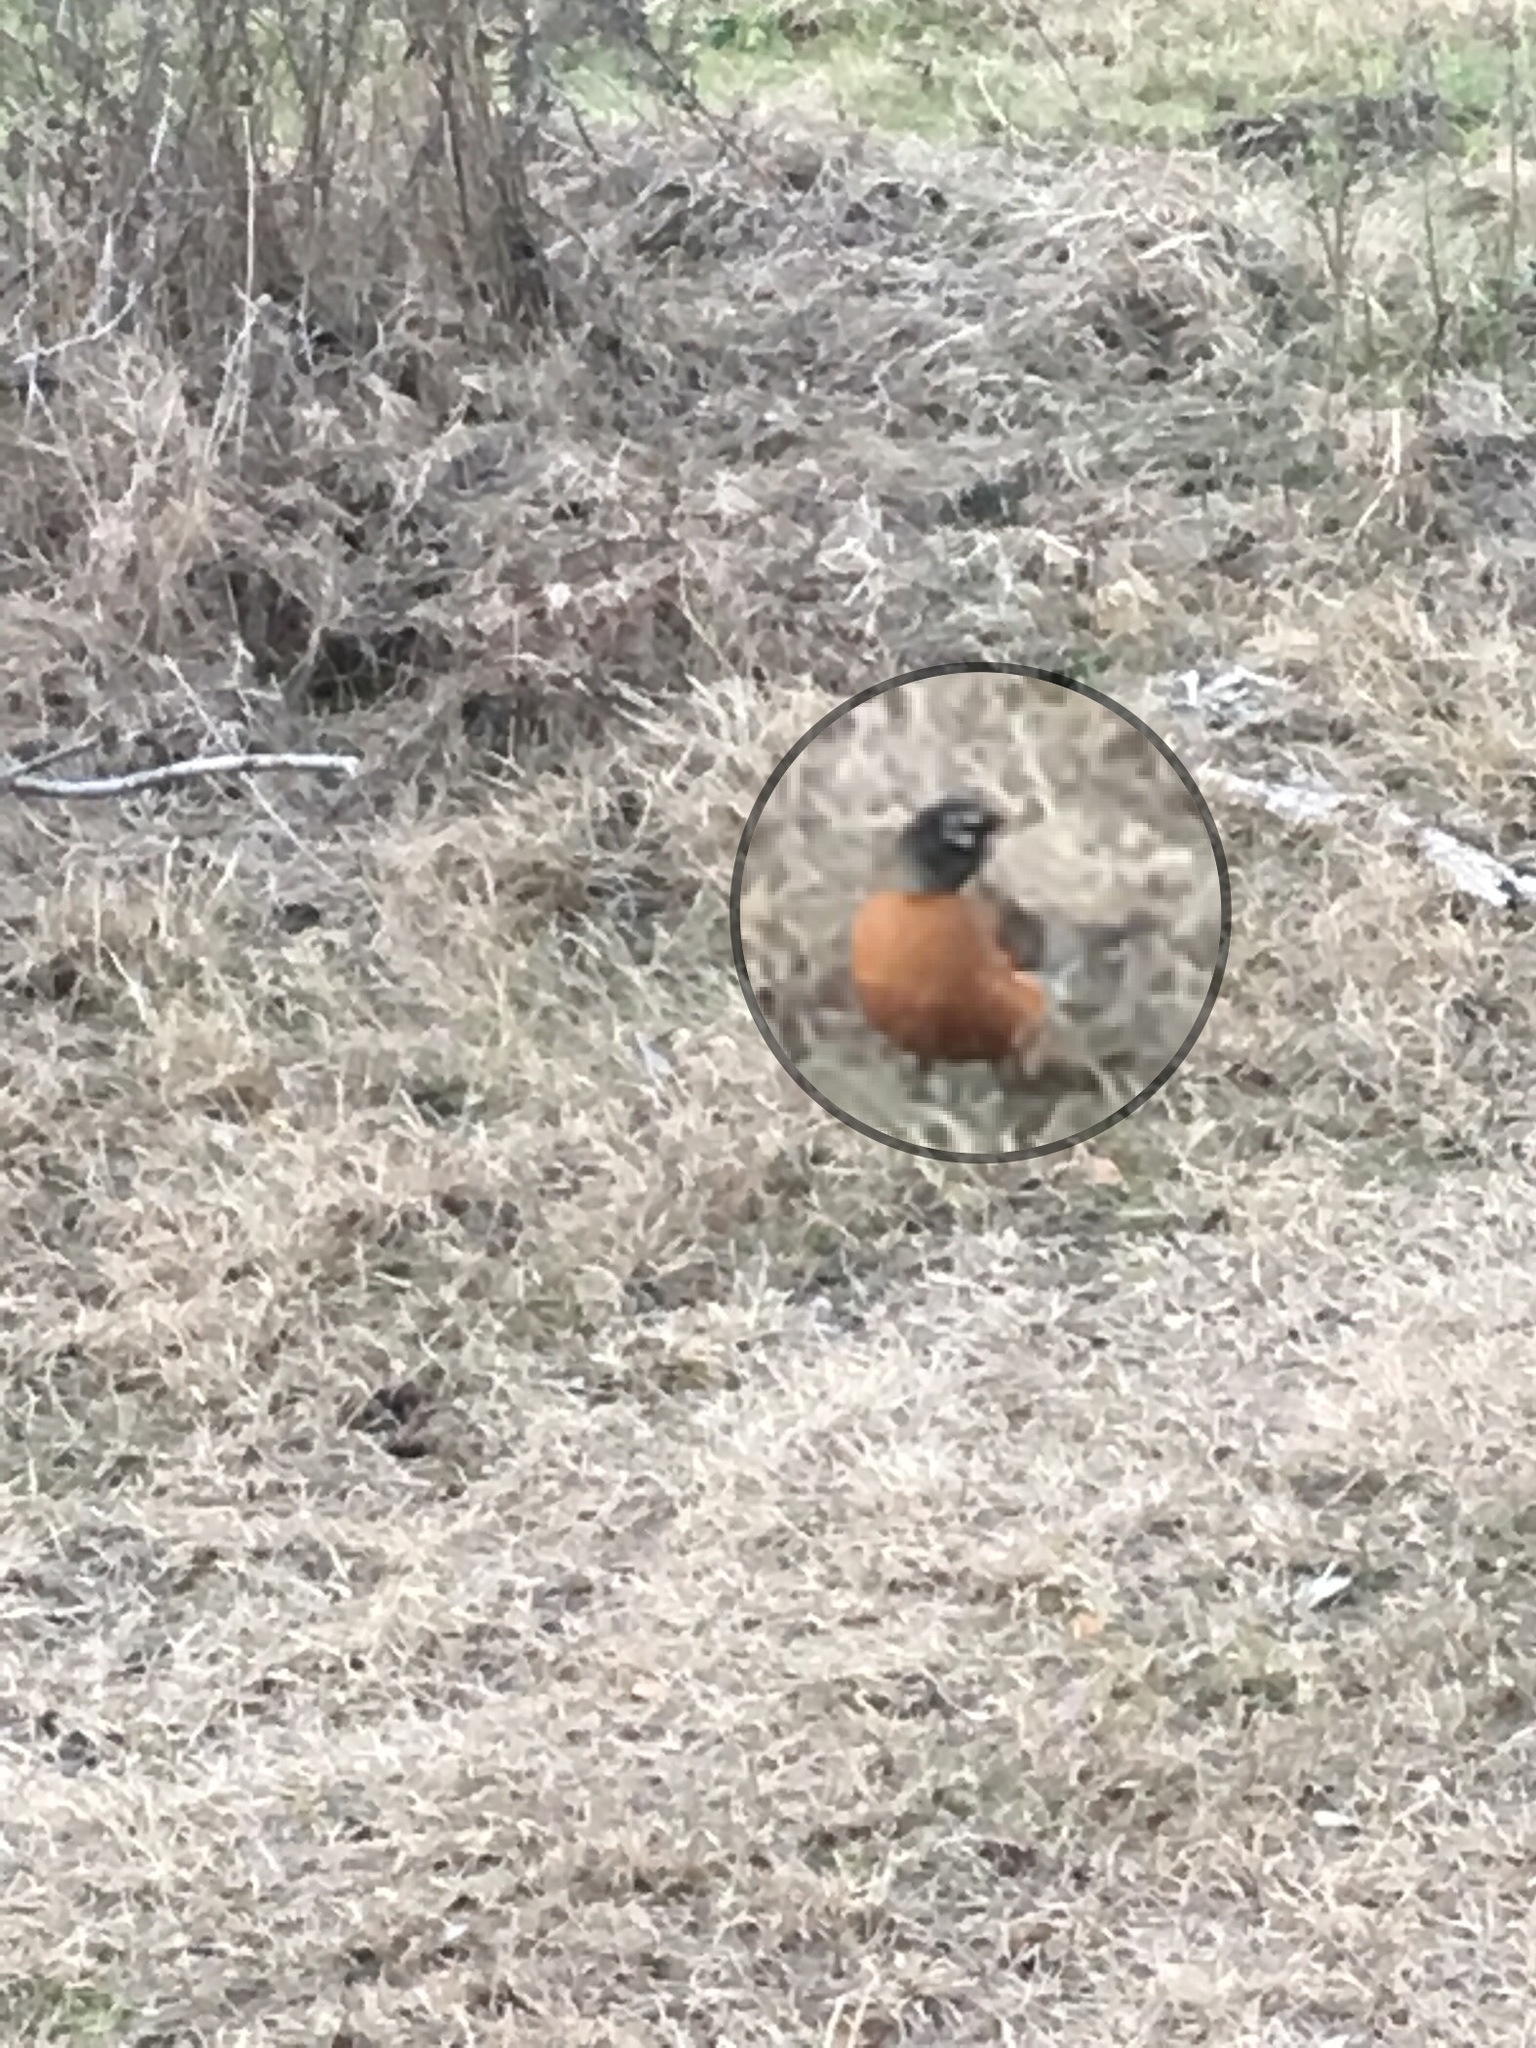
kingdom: Animalia
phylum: Chordata
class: Aves
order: Passeriformes
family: Turdidae
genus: Turdus
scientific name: Turdus migratorius
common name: American robin
